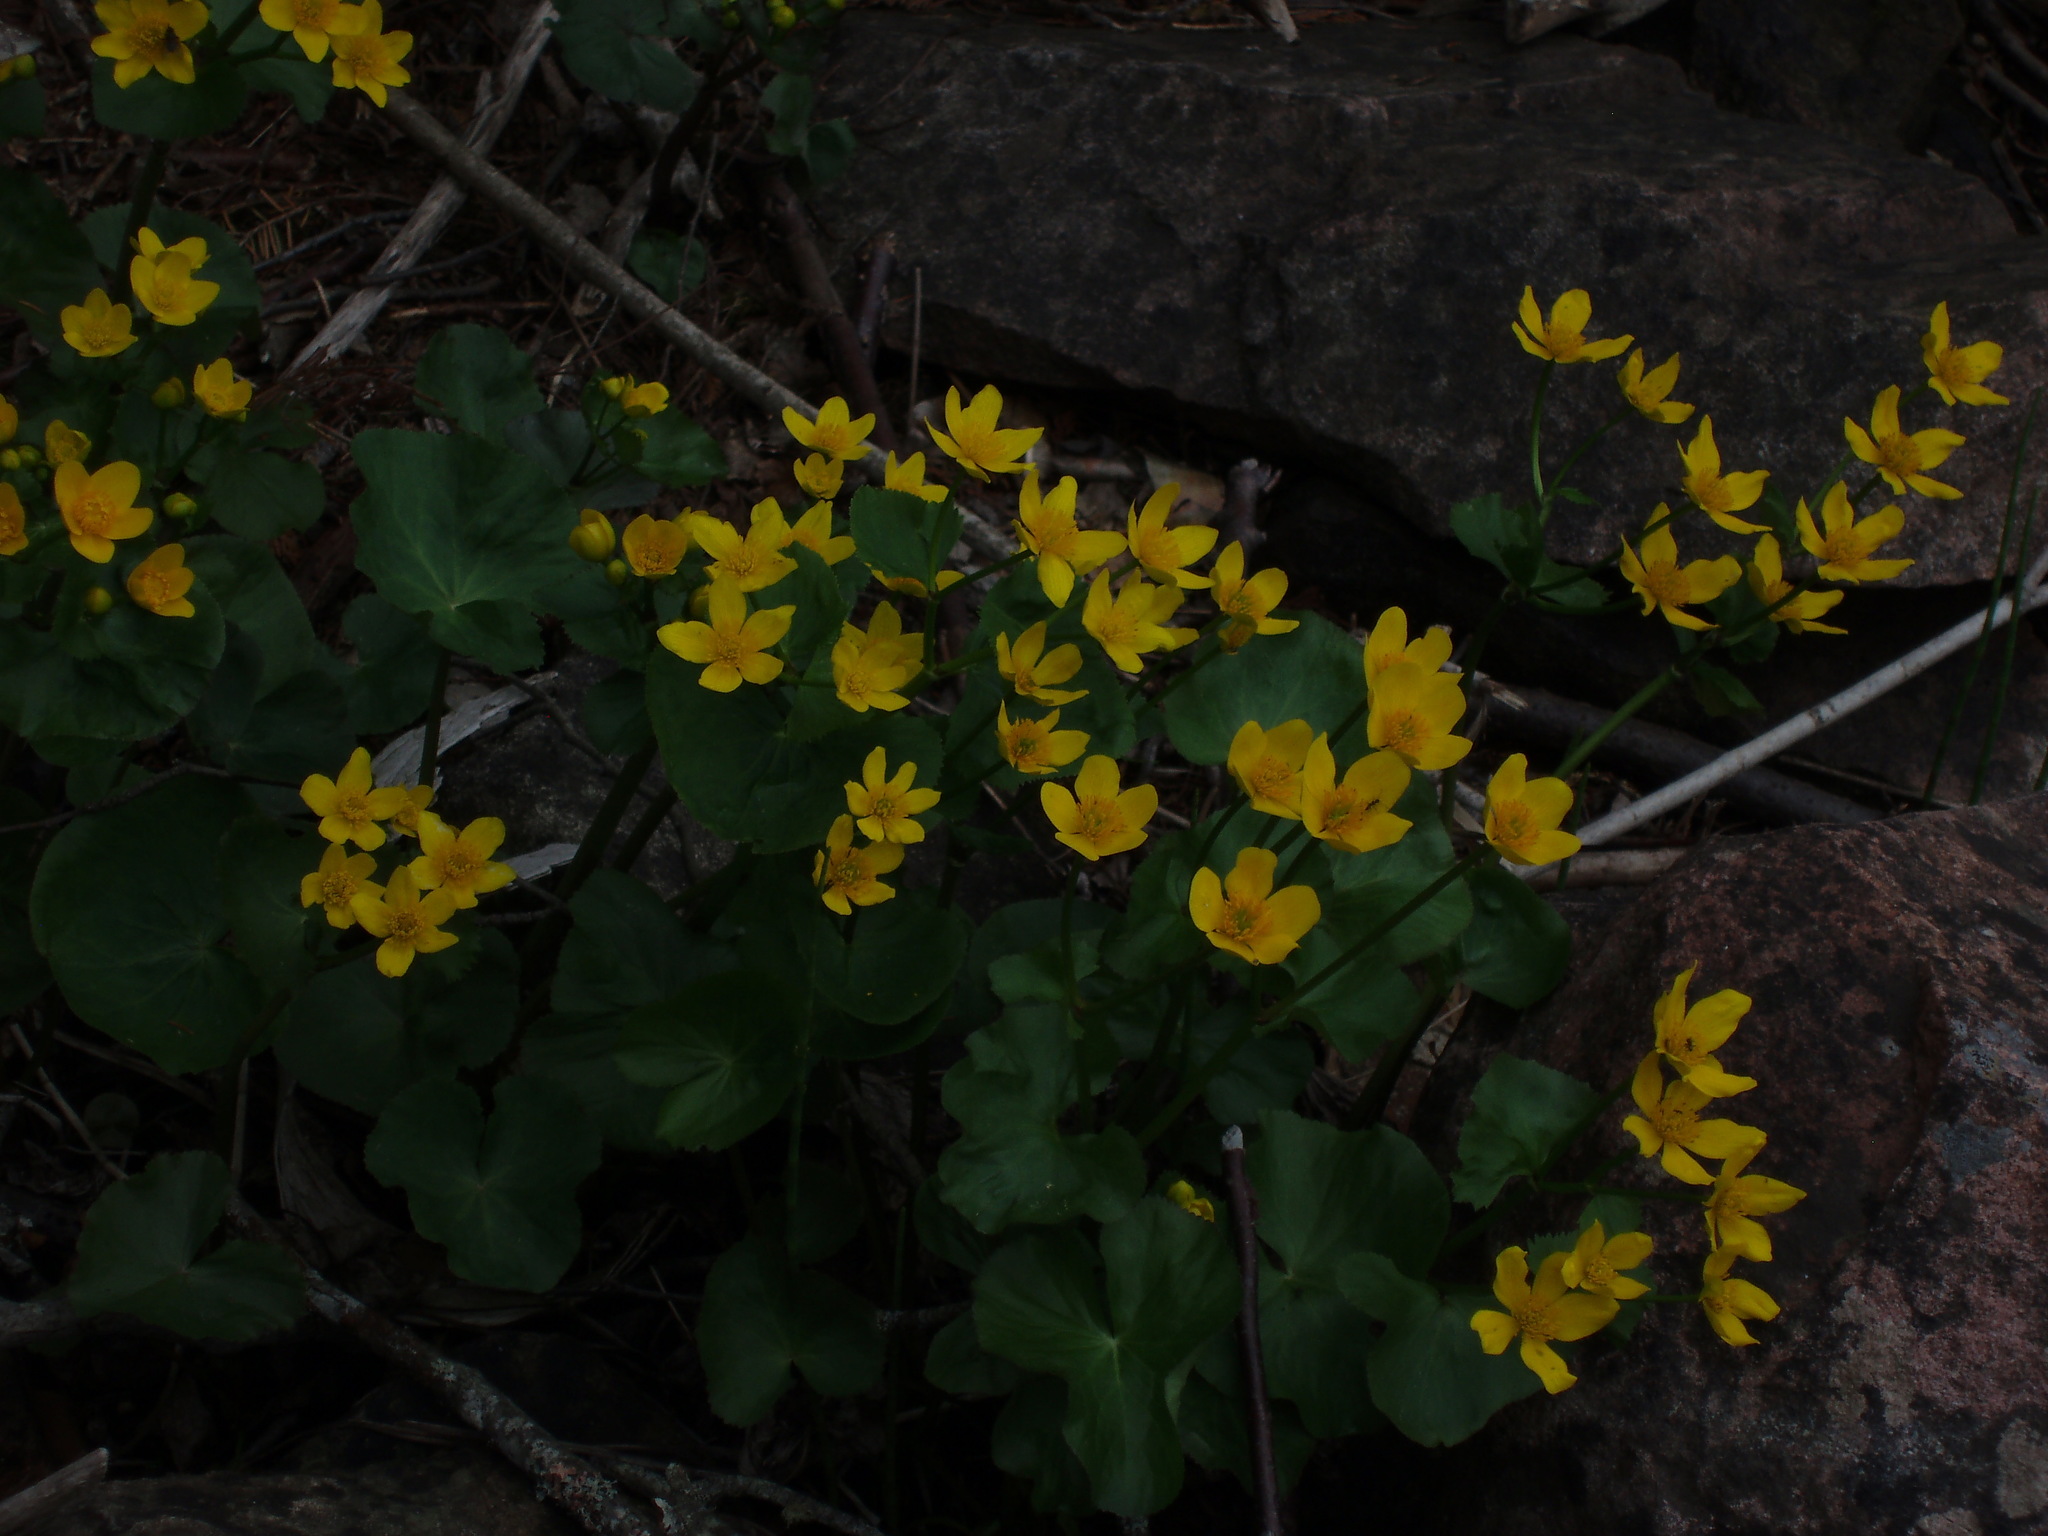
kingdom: Plantae
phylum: Tracheophyta
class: Magnoliopsida
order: Ranunculales
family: Ranunculaceae
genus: Caltha
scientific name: Caltha palustris
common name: Marsh marigold
